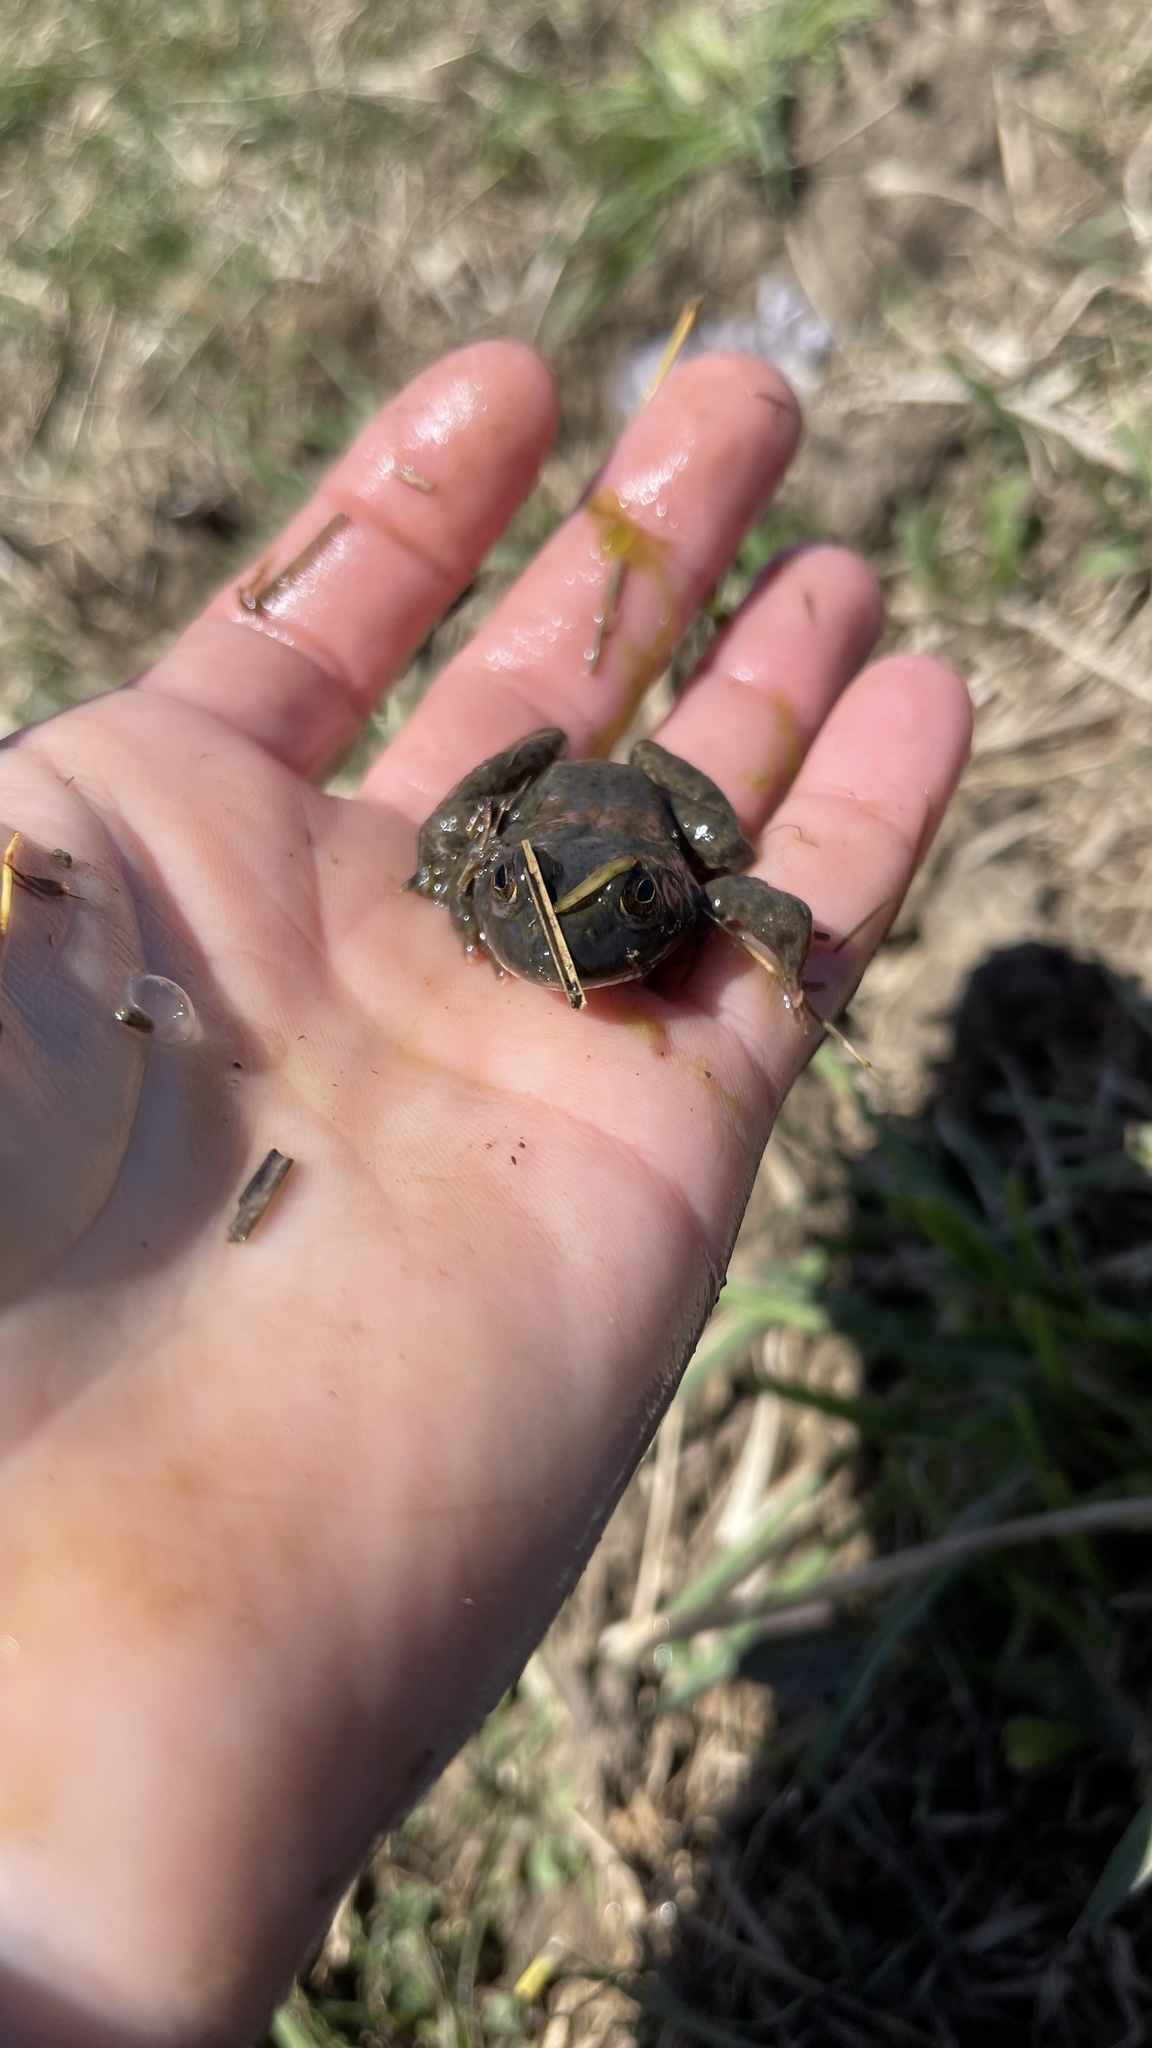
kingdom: Animalia
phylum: Chordata
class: Amphibia
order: Anura
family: Ranidae
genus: Lithobates
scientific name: Lithobates catesbeianus
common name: American bullfrog
